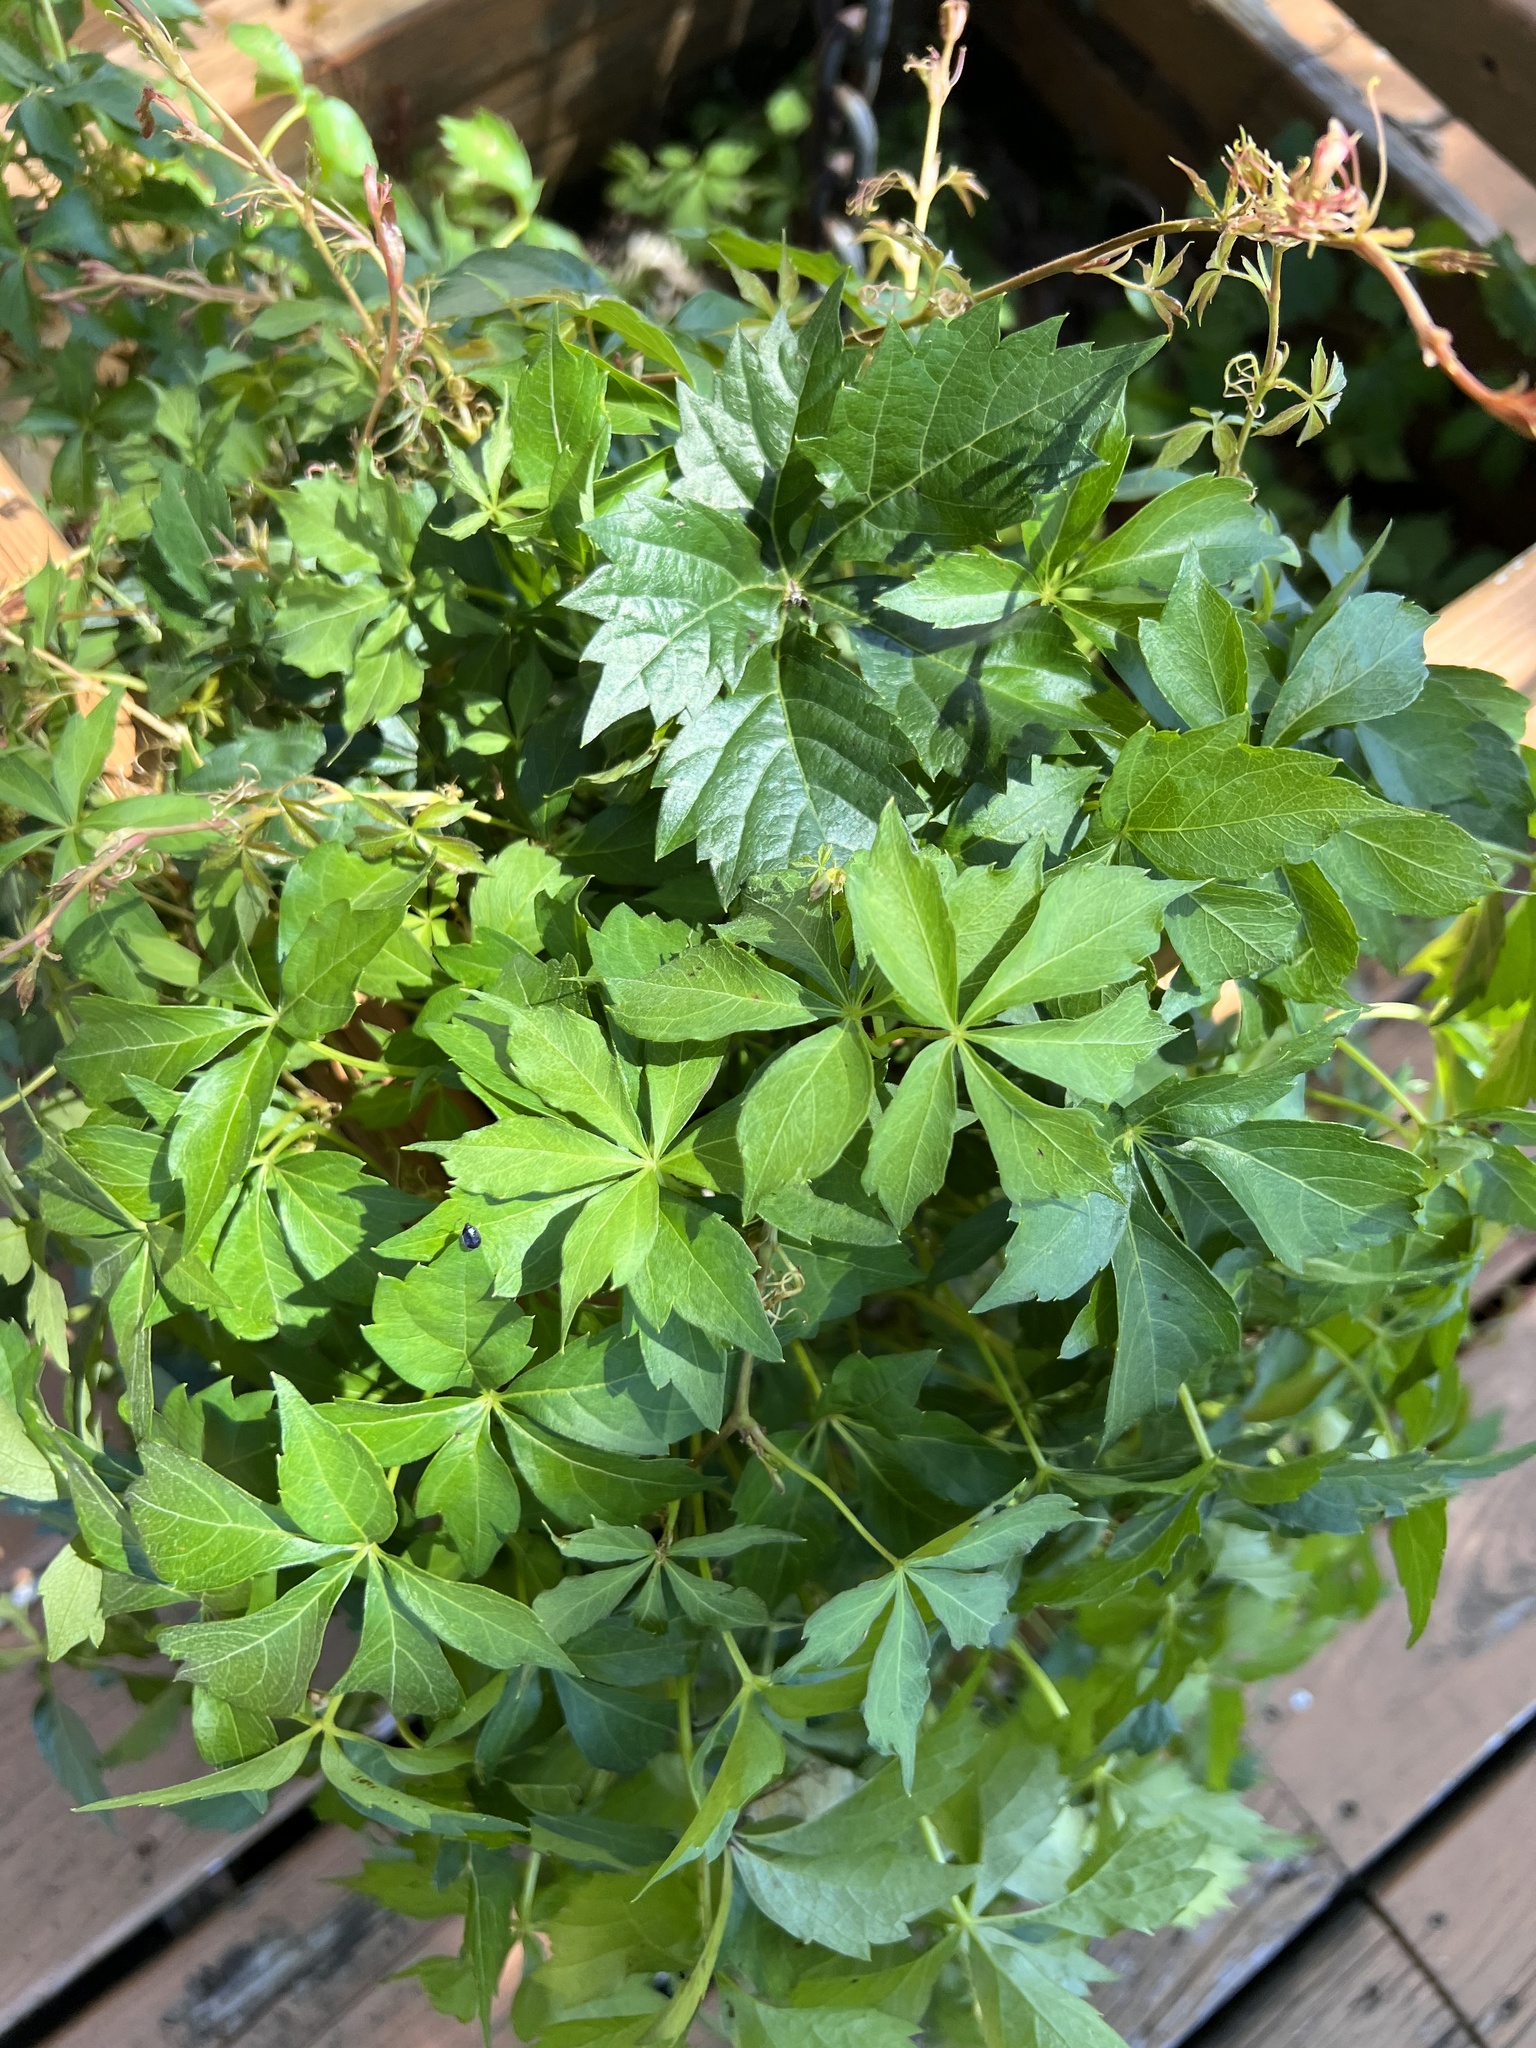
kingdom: Plantae
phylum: Tracheophyta
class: Magnoliopsida
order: Vitales
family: Vitaceae
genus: Parthenocissus
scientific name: Parthenocissus quinquefolia
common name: Virginia-creeper
